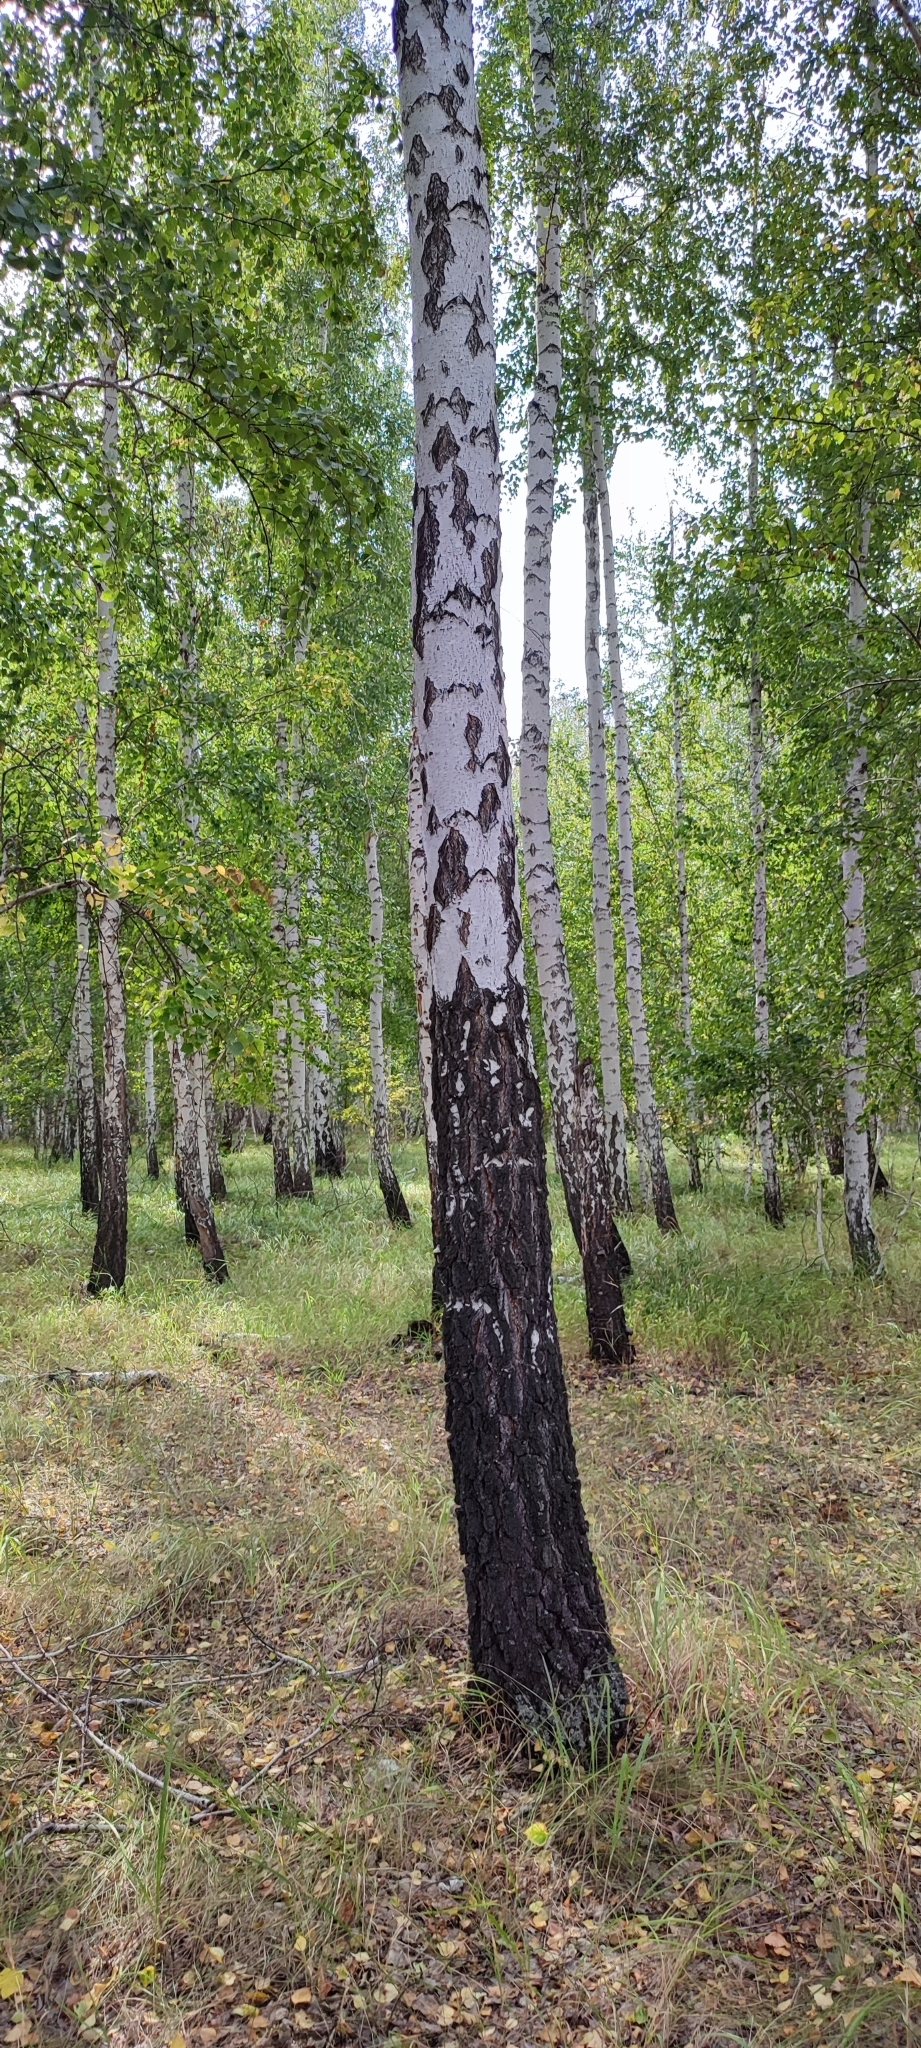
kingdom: Plantae
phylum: Tracheophyta
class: Magnoliopsida
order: Fagales
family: Betulaceae
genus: Betula
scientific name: Betula pendula
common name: Silver birch
